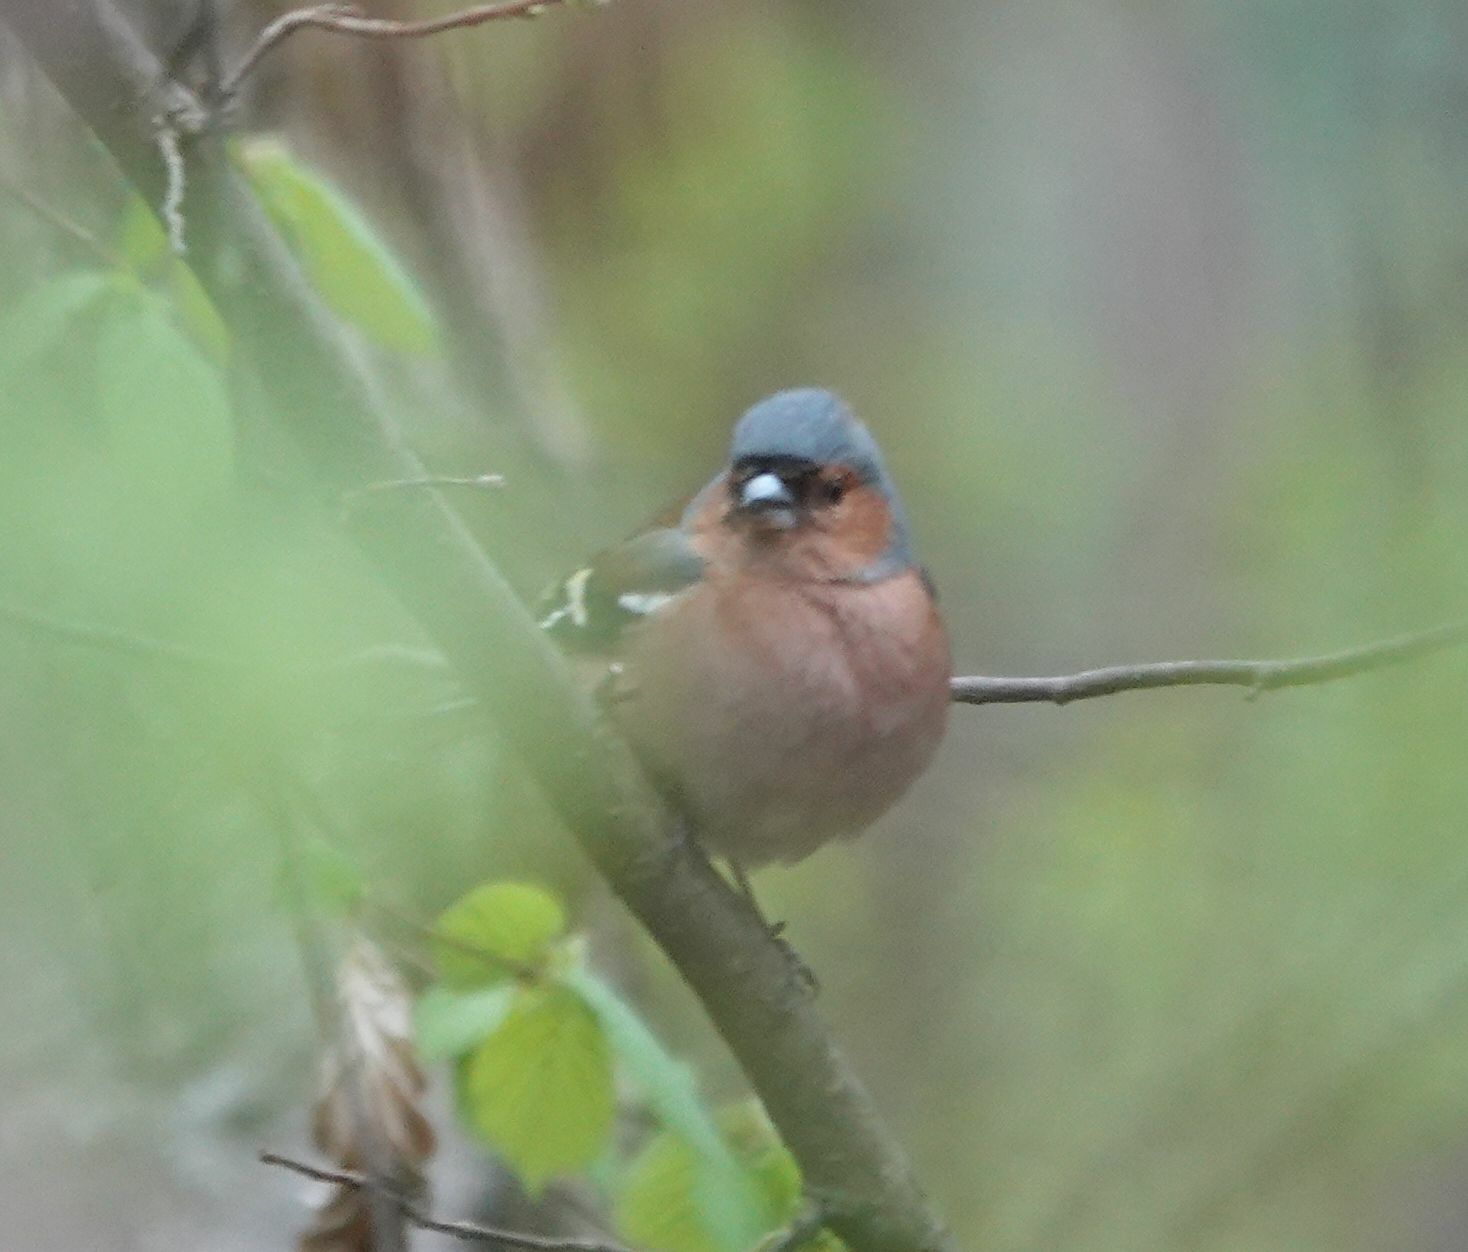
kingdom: Animalia
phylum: Chordata
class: Aves
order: Passeriformes
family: Fringillidae
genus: Fringilla
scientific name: Fringilla coelebs
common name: Common chaffinch
